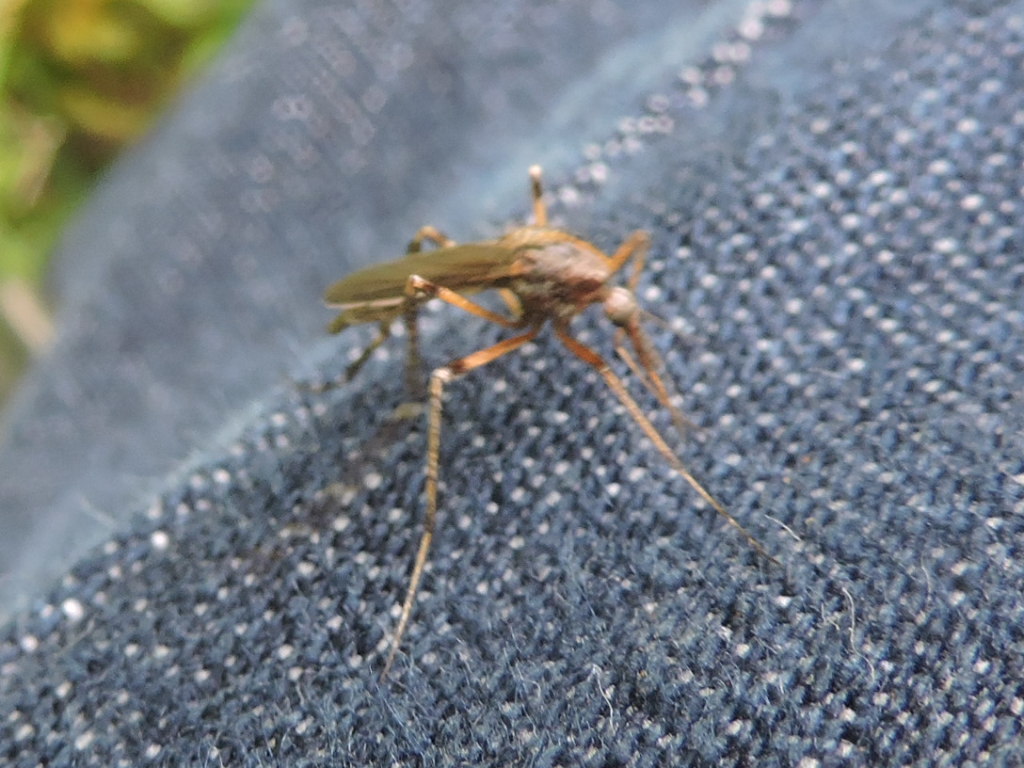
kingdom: Animalia
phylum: Arthropoda
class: Insecta
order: Diptera
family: Culicidae
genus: Psorophora
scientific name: Psorophora ciliata
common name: Gallinipper
